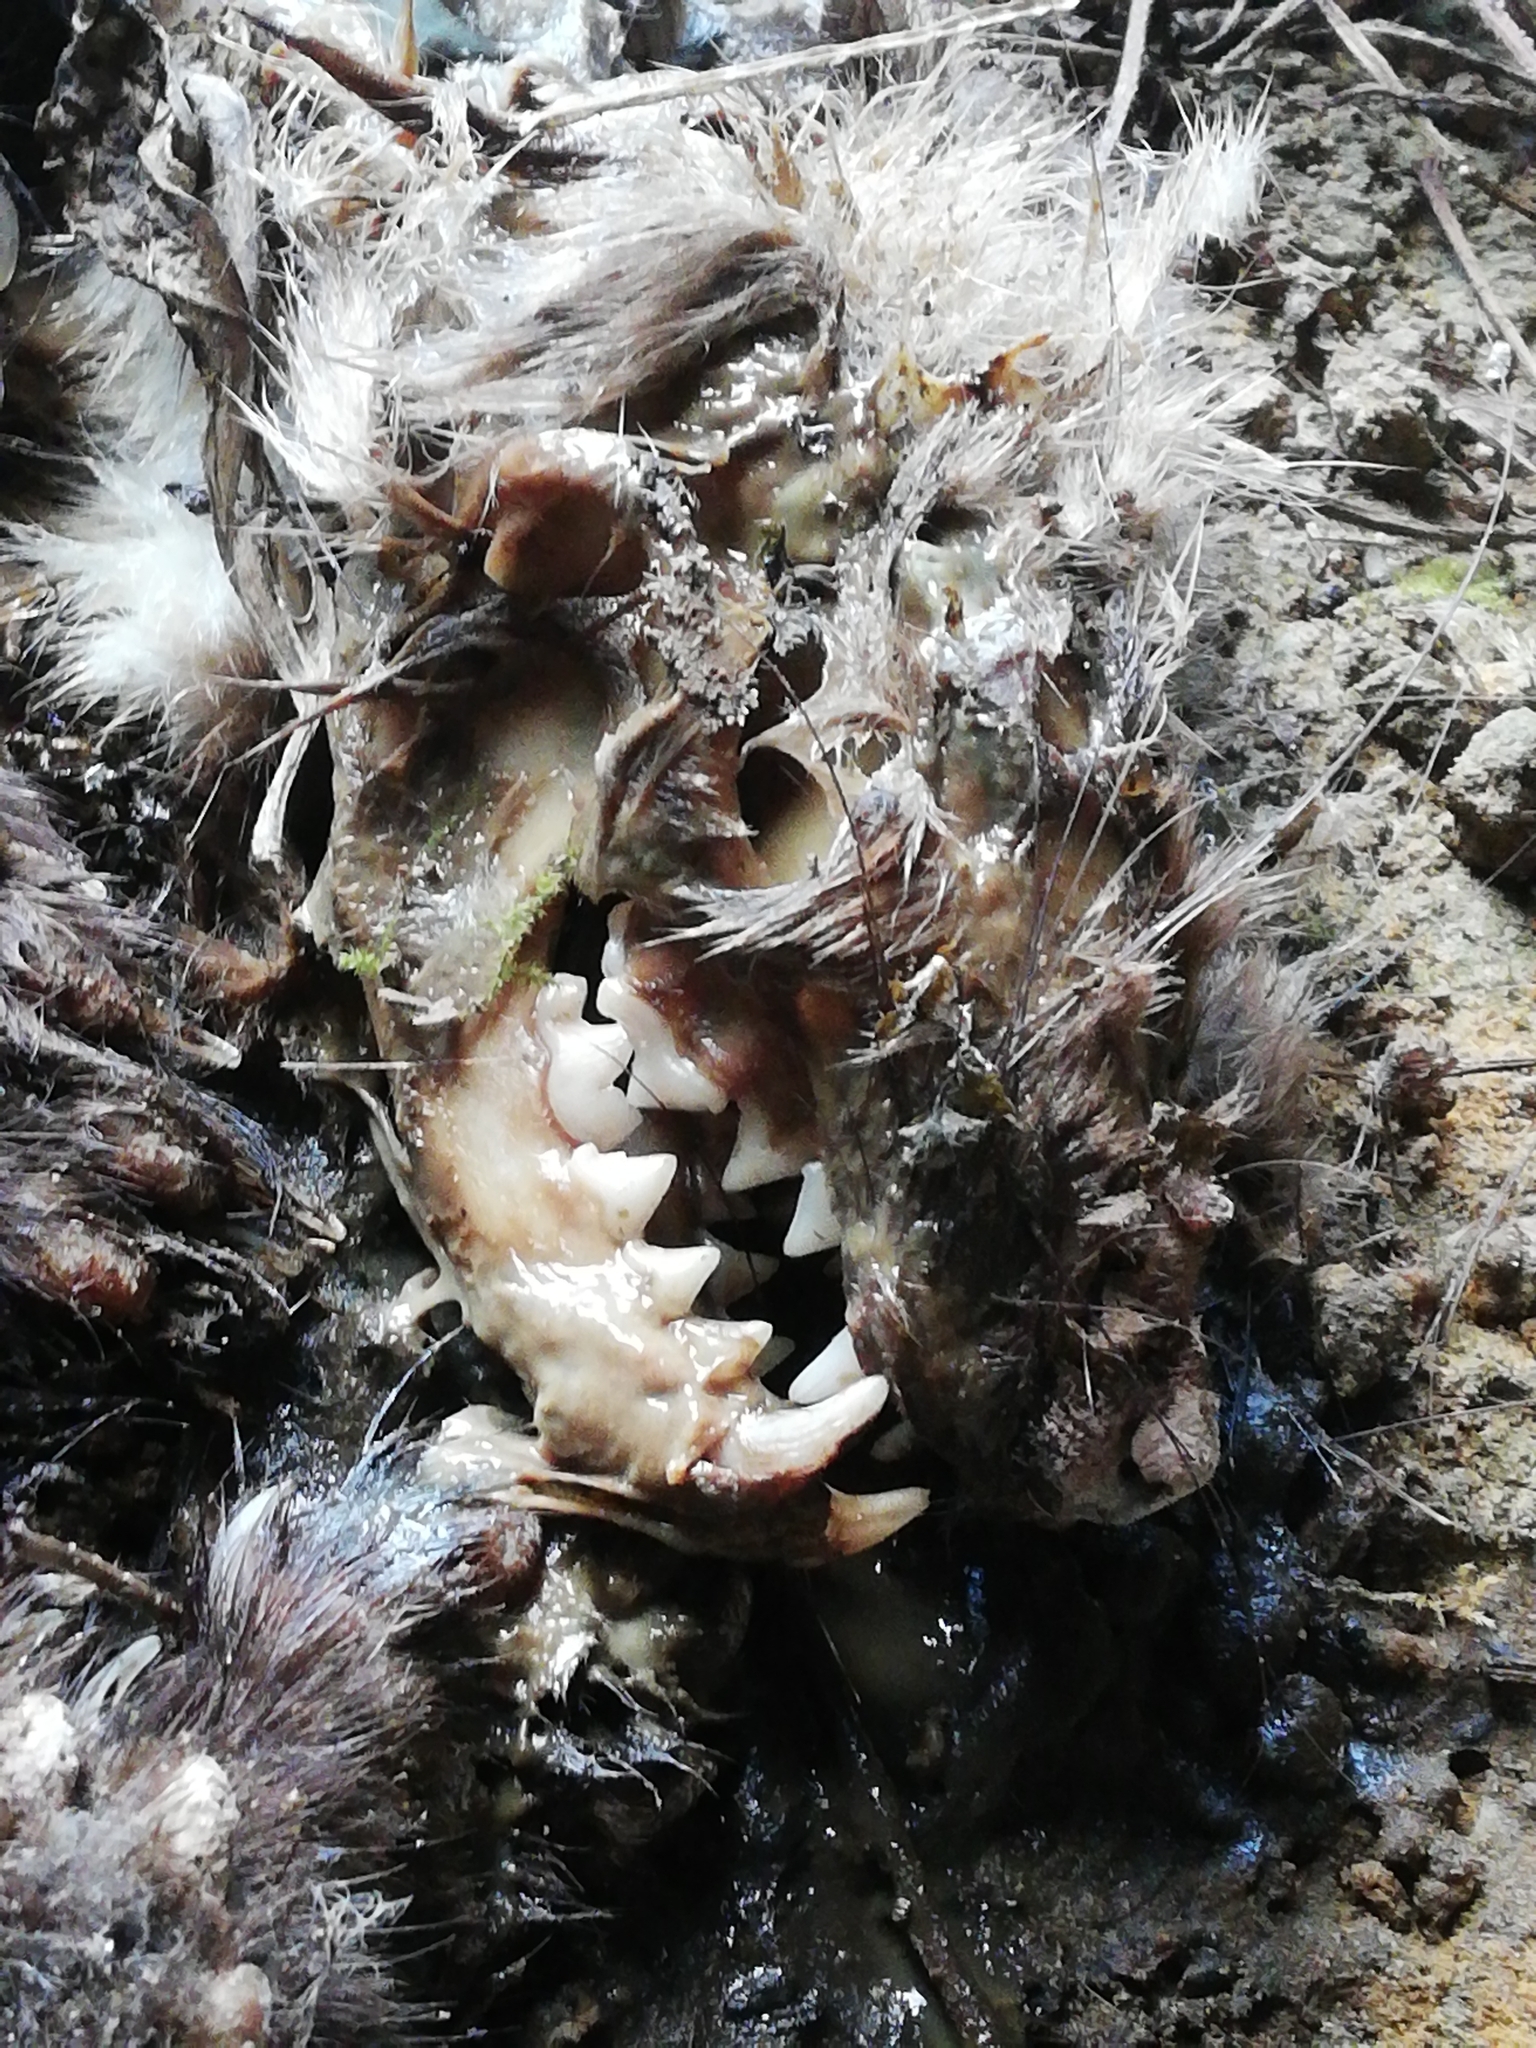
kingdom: Animalia
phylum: Chordata
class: Mammalia
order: Carnivora
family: Mustelidae
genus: Martes
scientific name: Martes foina
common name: Beech marten
